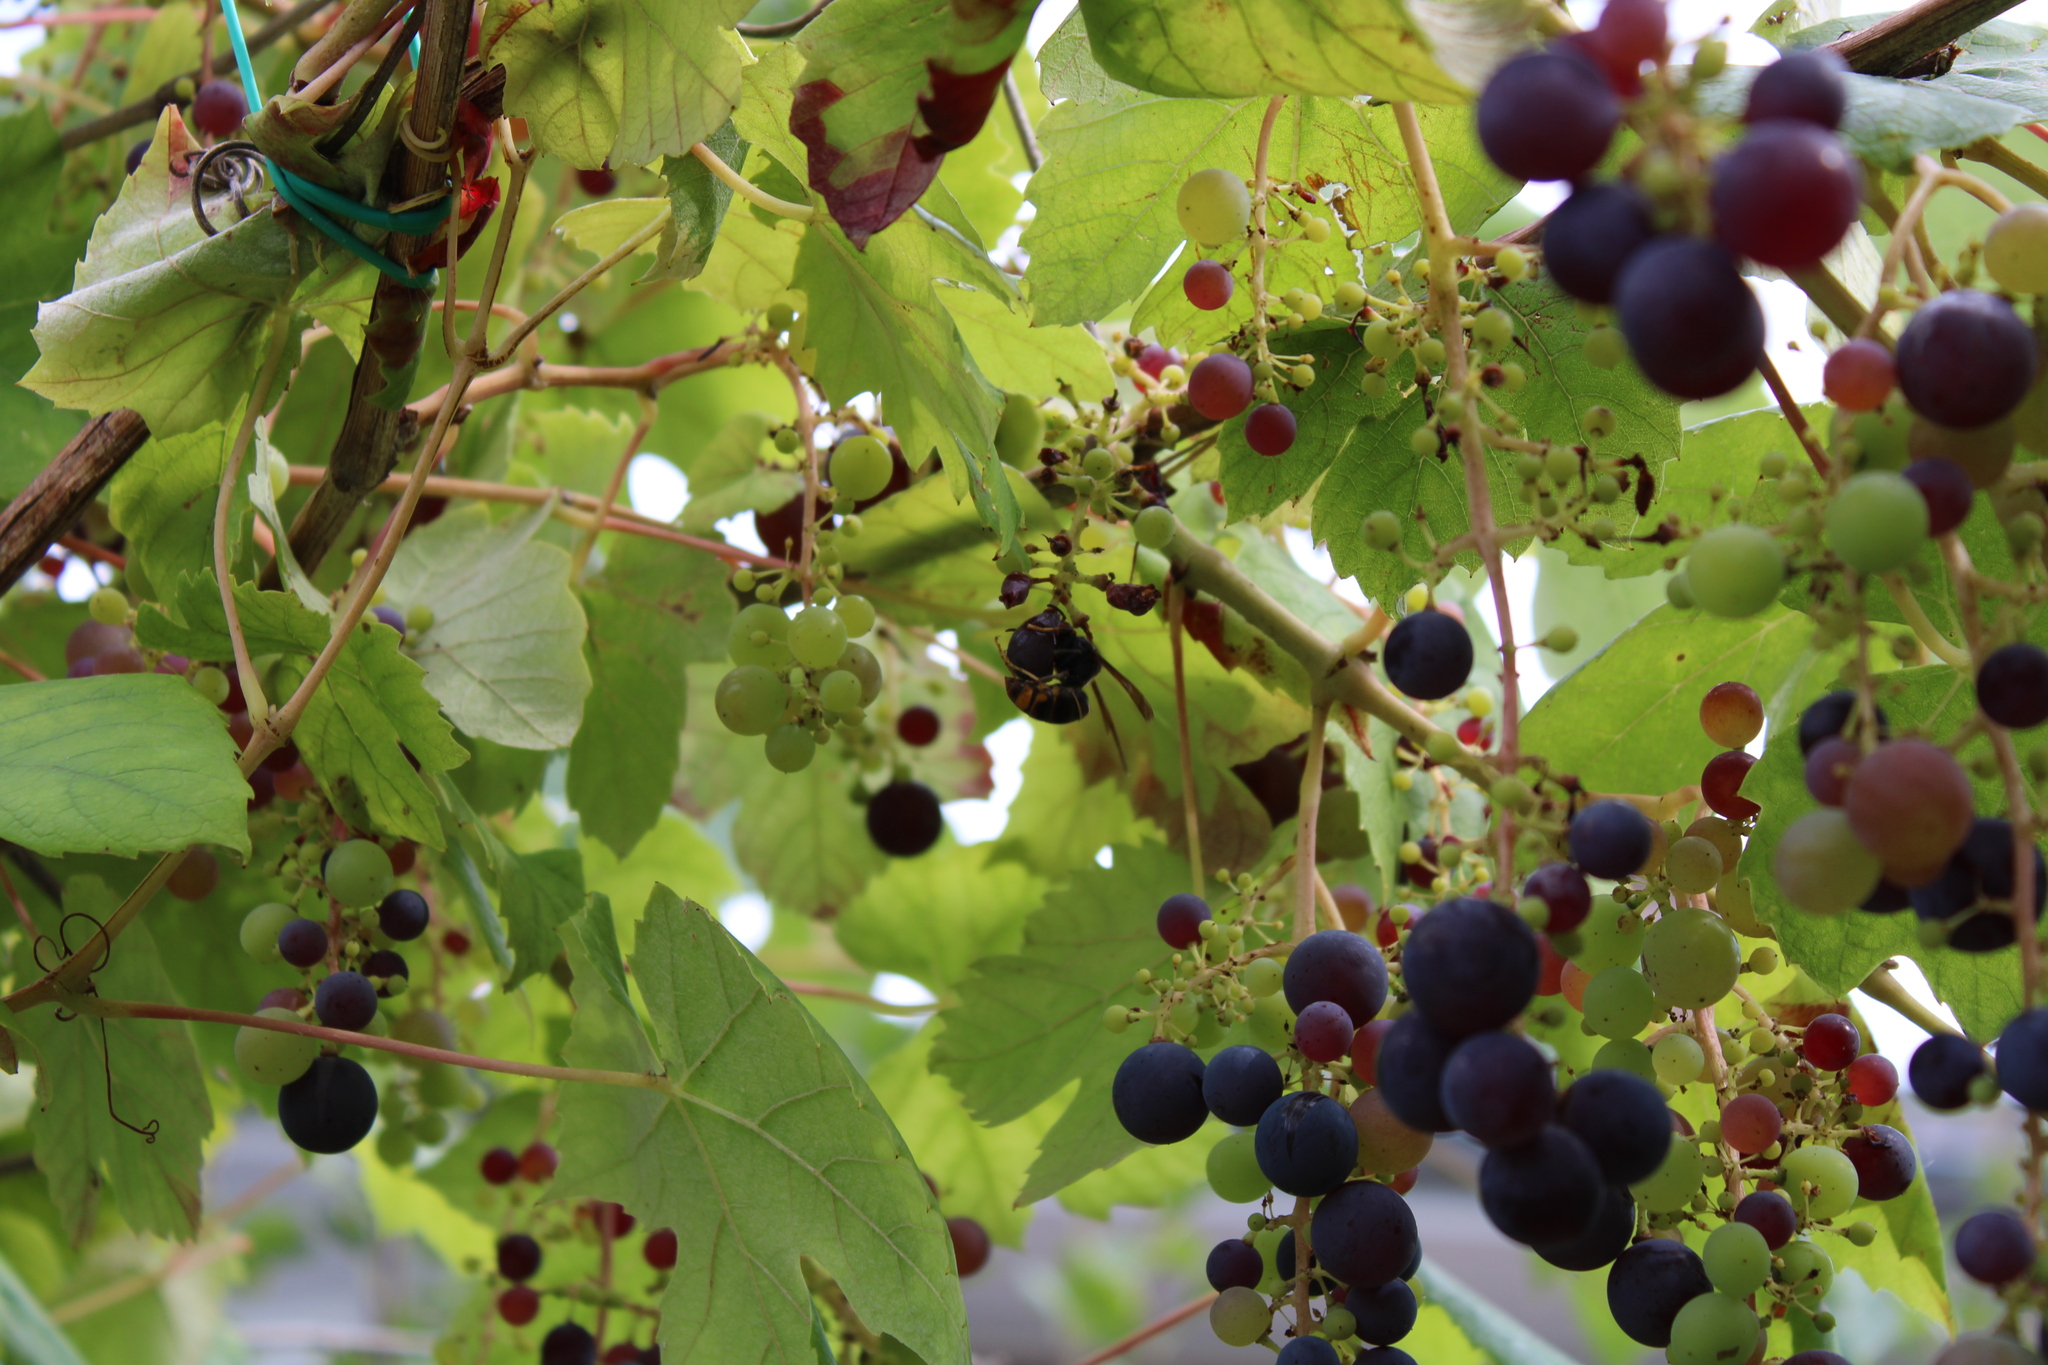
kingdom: Animalia
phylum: Arthropoda
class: Insecta
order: Hymenoptera
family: Vespidae
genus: Vespa
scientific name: Vespa velutina
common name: Asian hornet
